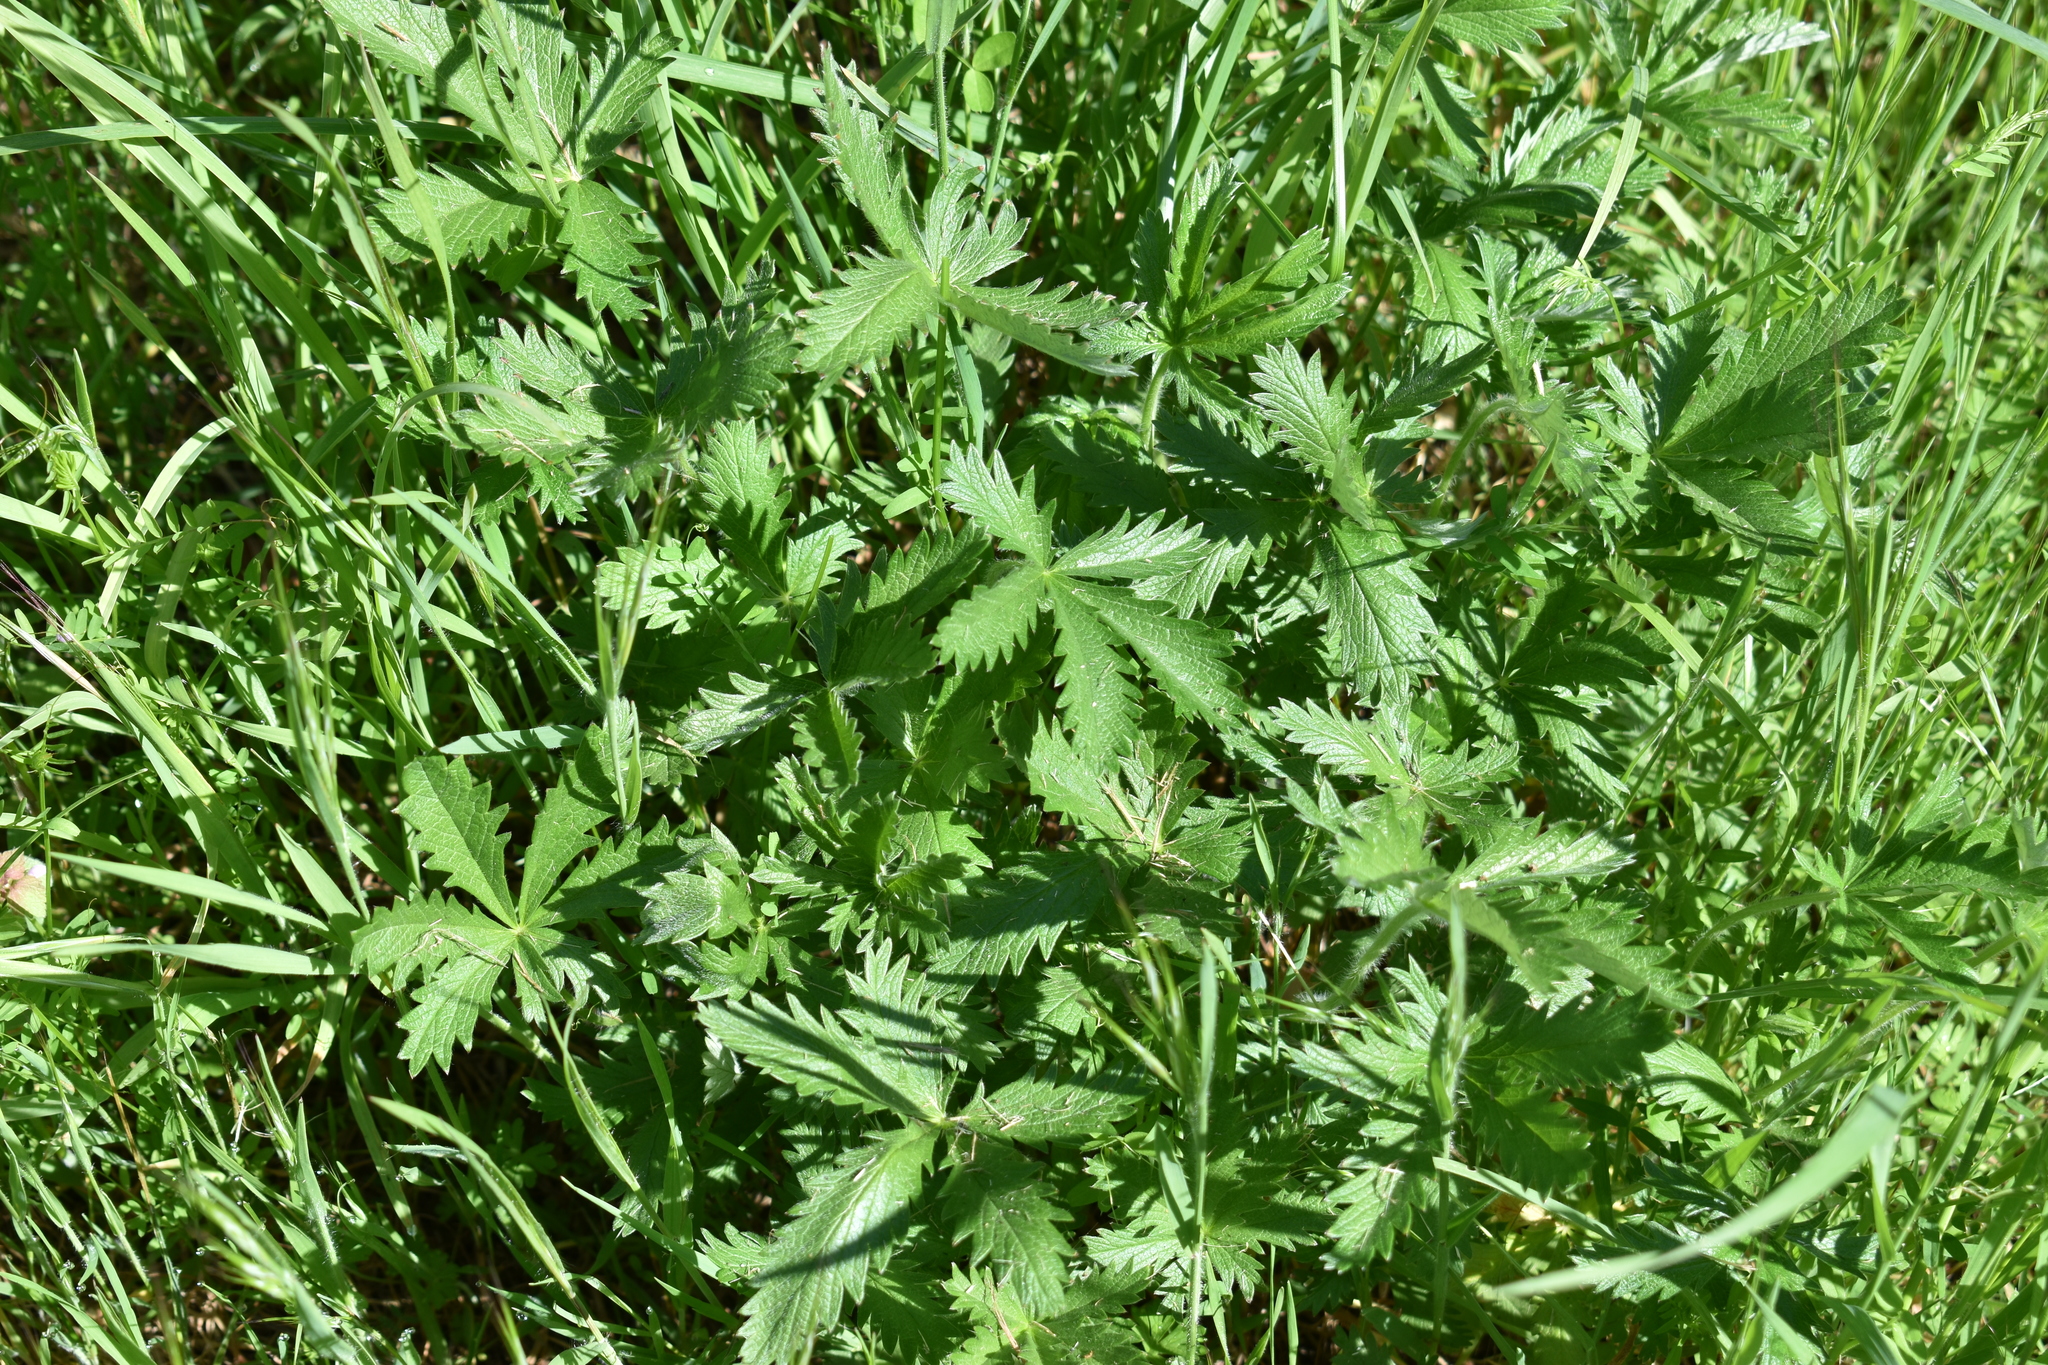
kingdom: Plantae
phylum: Tracheophyta
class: Magnoliopsida
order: Rosales
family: Rosaceae
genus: Potentilla
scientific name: Potentilla gracilis
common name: Graceful cinquefoil
